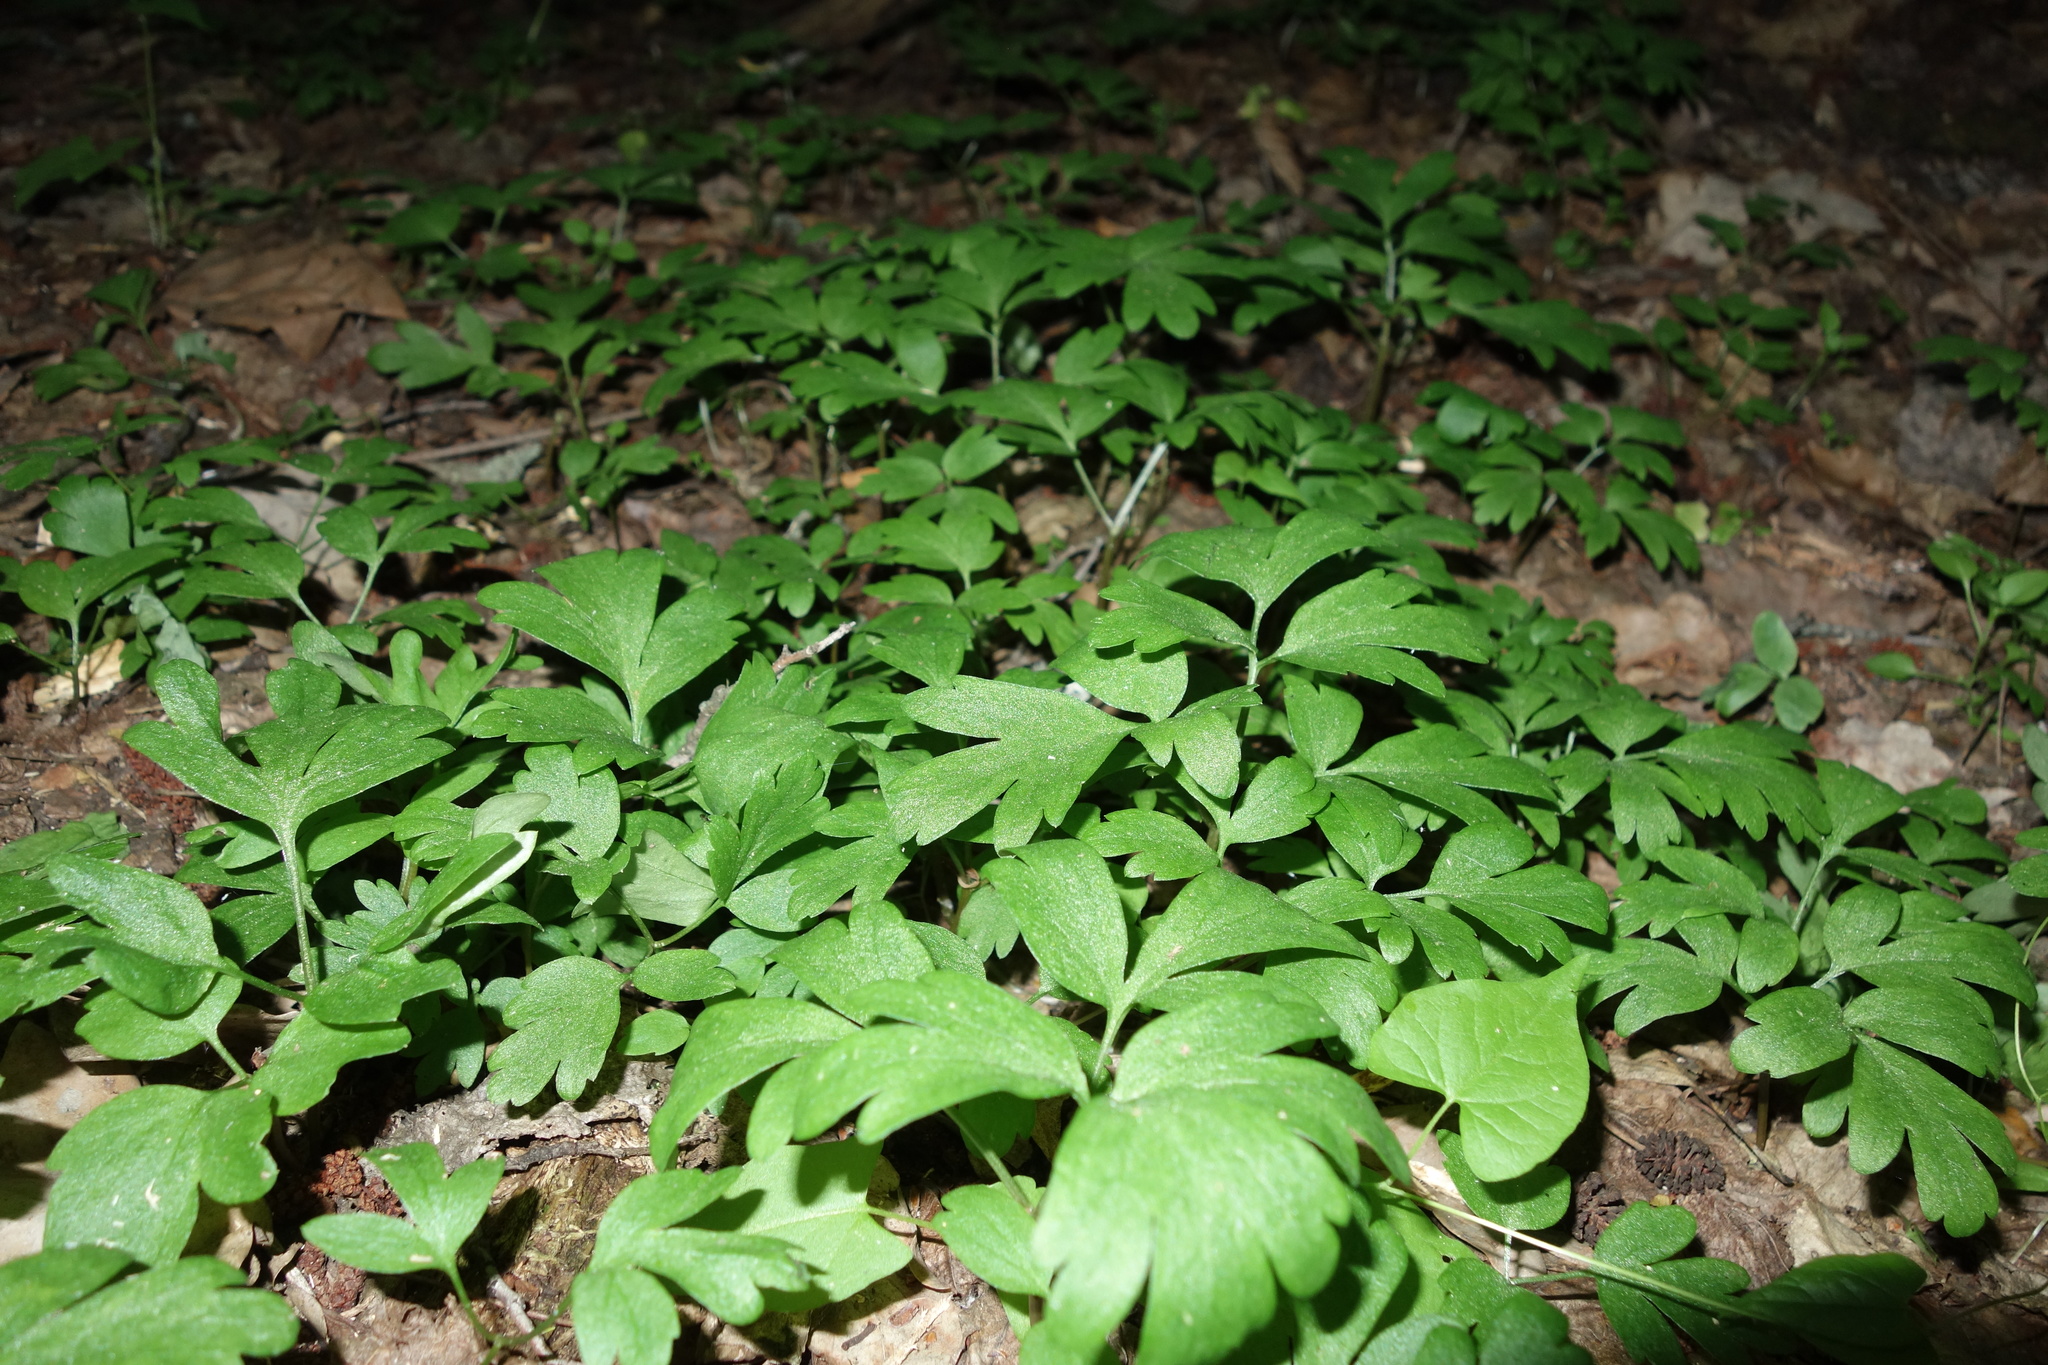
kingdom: Plantae
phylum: Tracheophyta
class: Magnoliopsida
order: Dipsacales
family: Viburnaceae
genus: Adoxa
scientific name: Adoxa moschatellina
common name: Moschatel
